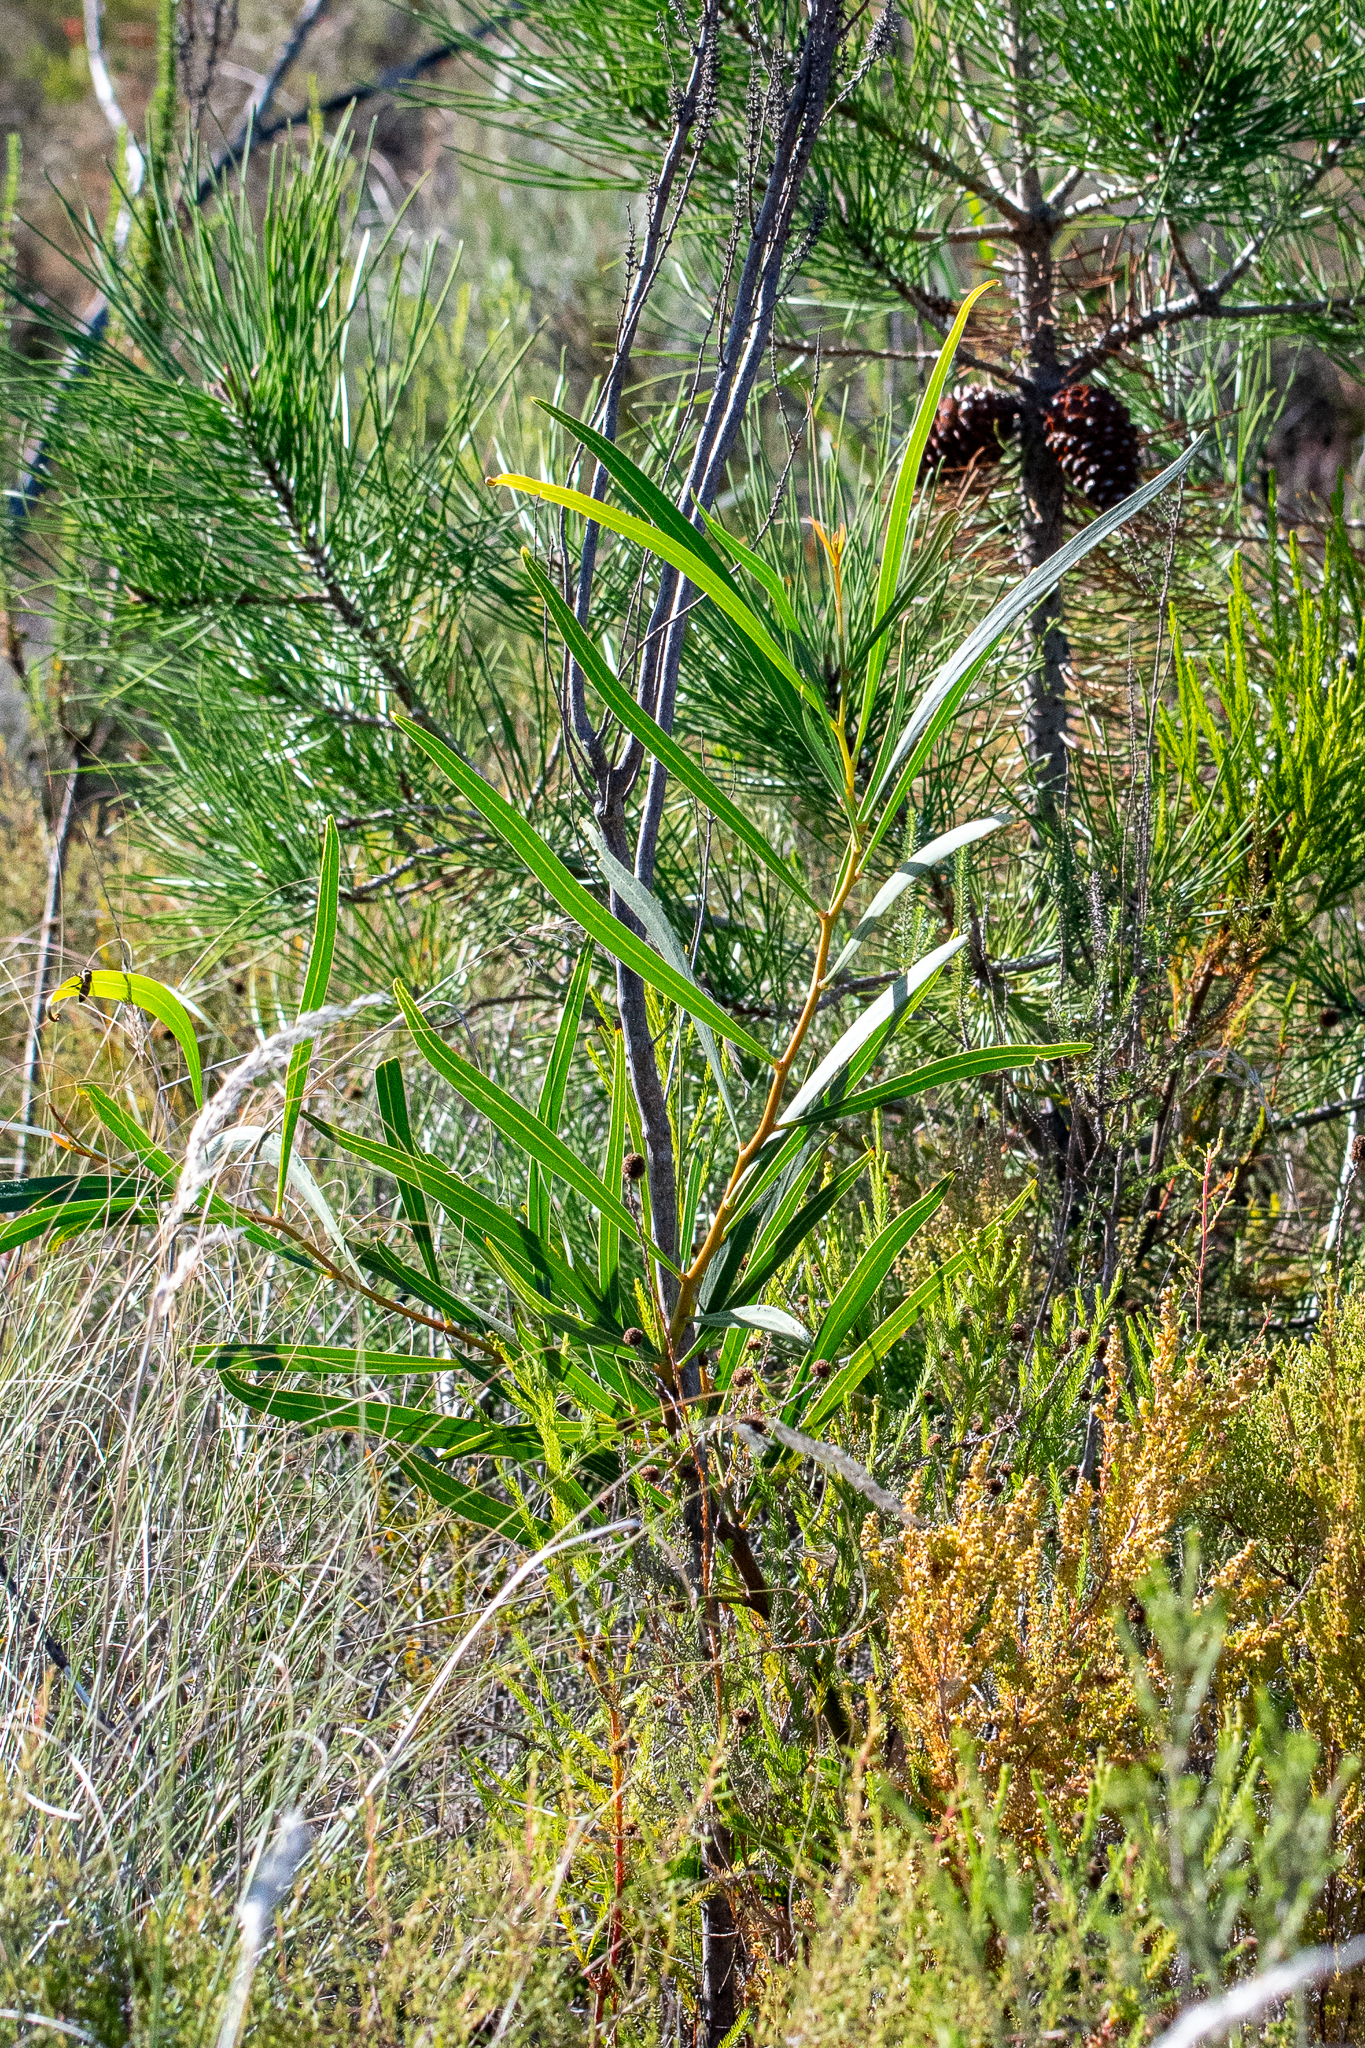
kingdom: Plantae
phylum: Tracheophyta
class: Magnoliopsida
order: Fabales
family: Fabaceae
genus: Acacia
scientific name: Acacia saligna
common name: Orange wattle
